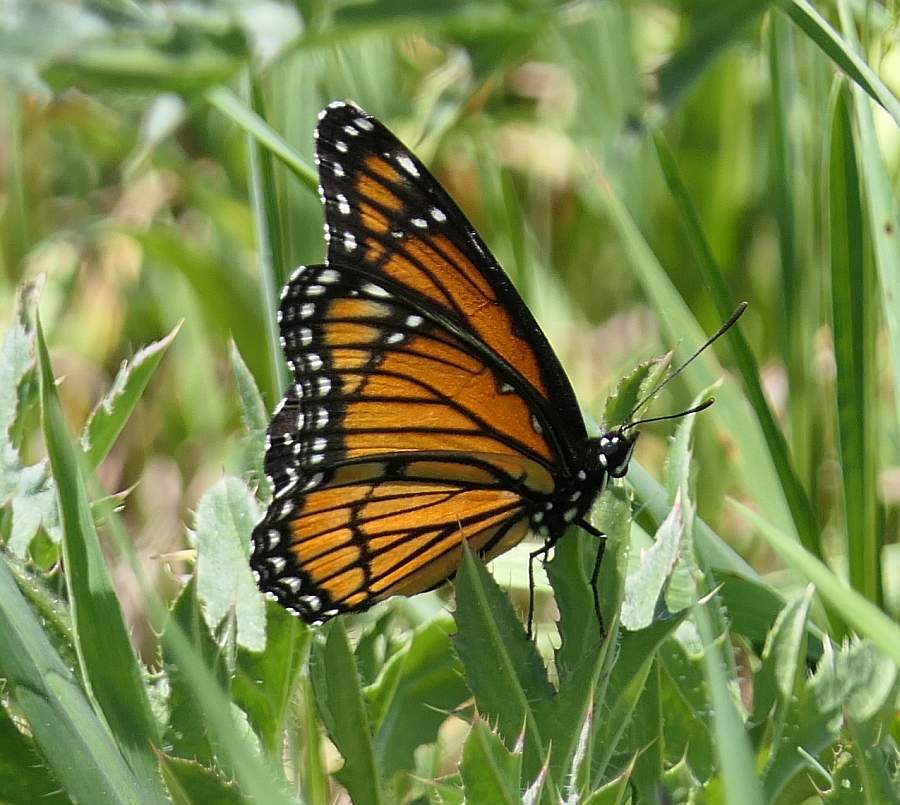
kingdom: Animalia
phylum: Arthropoda
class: Insecta
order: Lepidoptera
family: Nymphalidae
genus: Limenitis
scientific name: Limenitis archippus
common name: Viceroy
